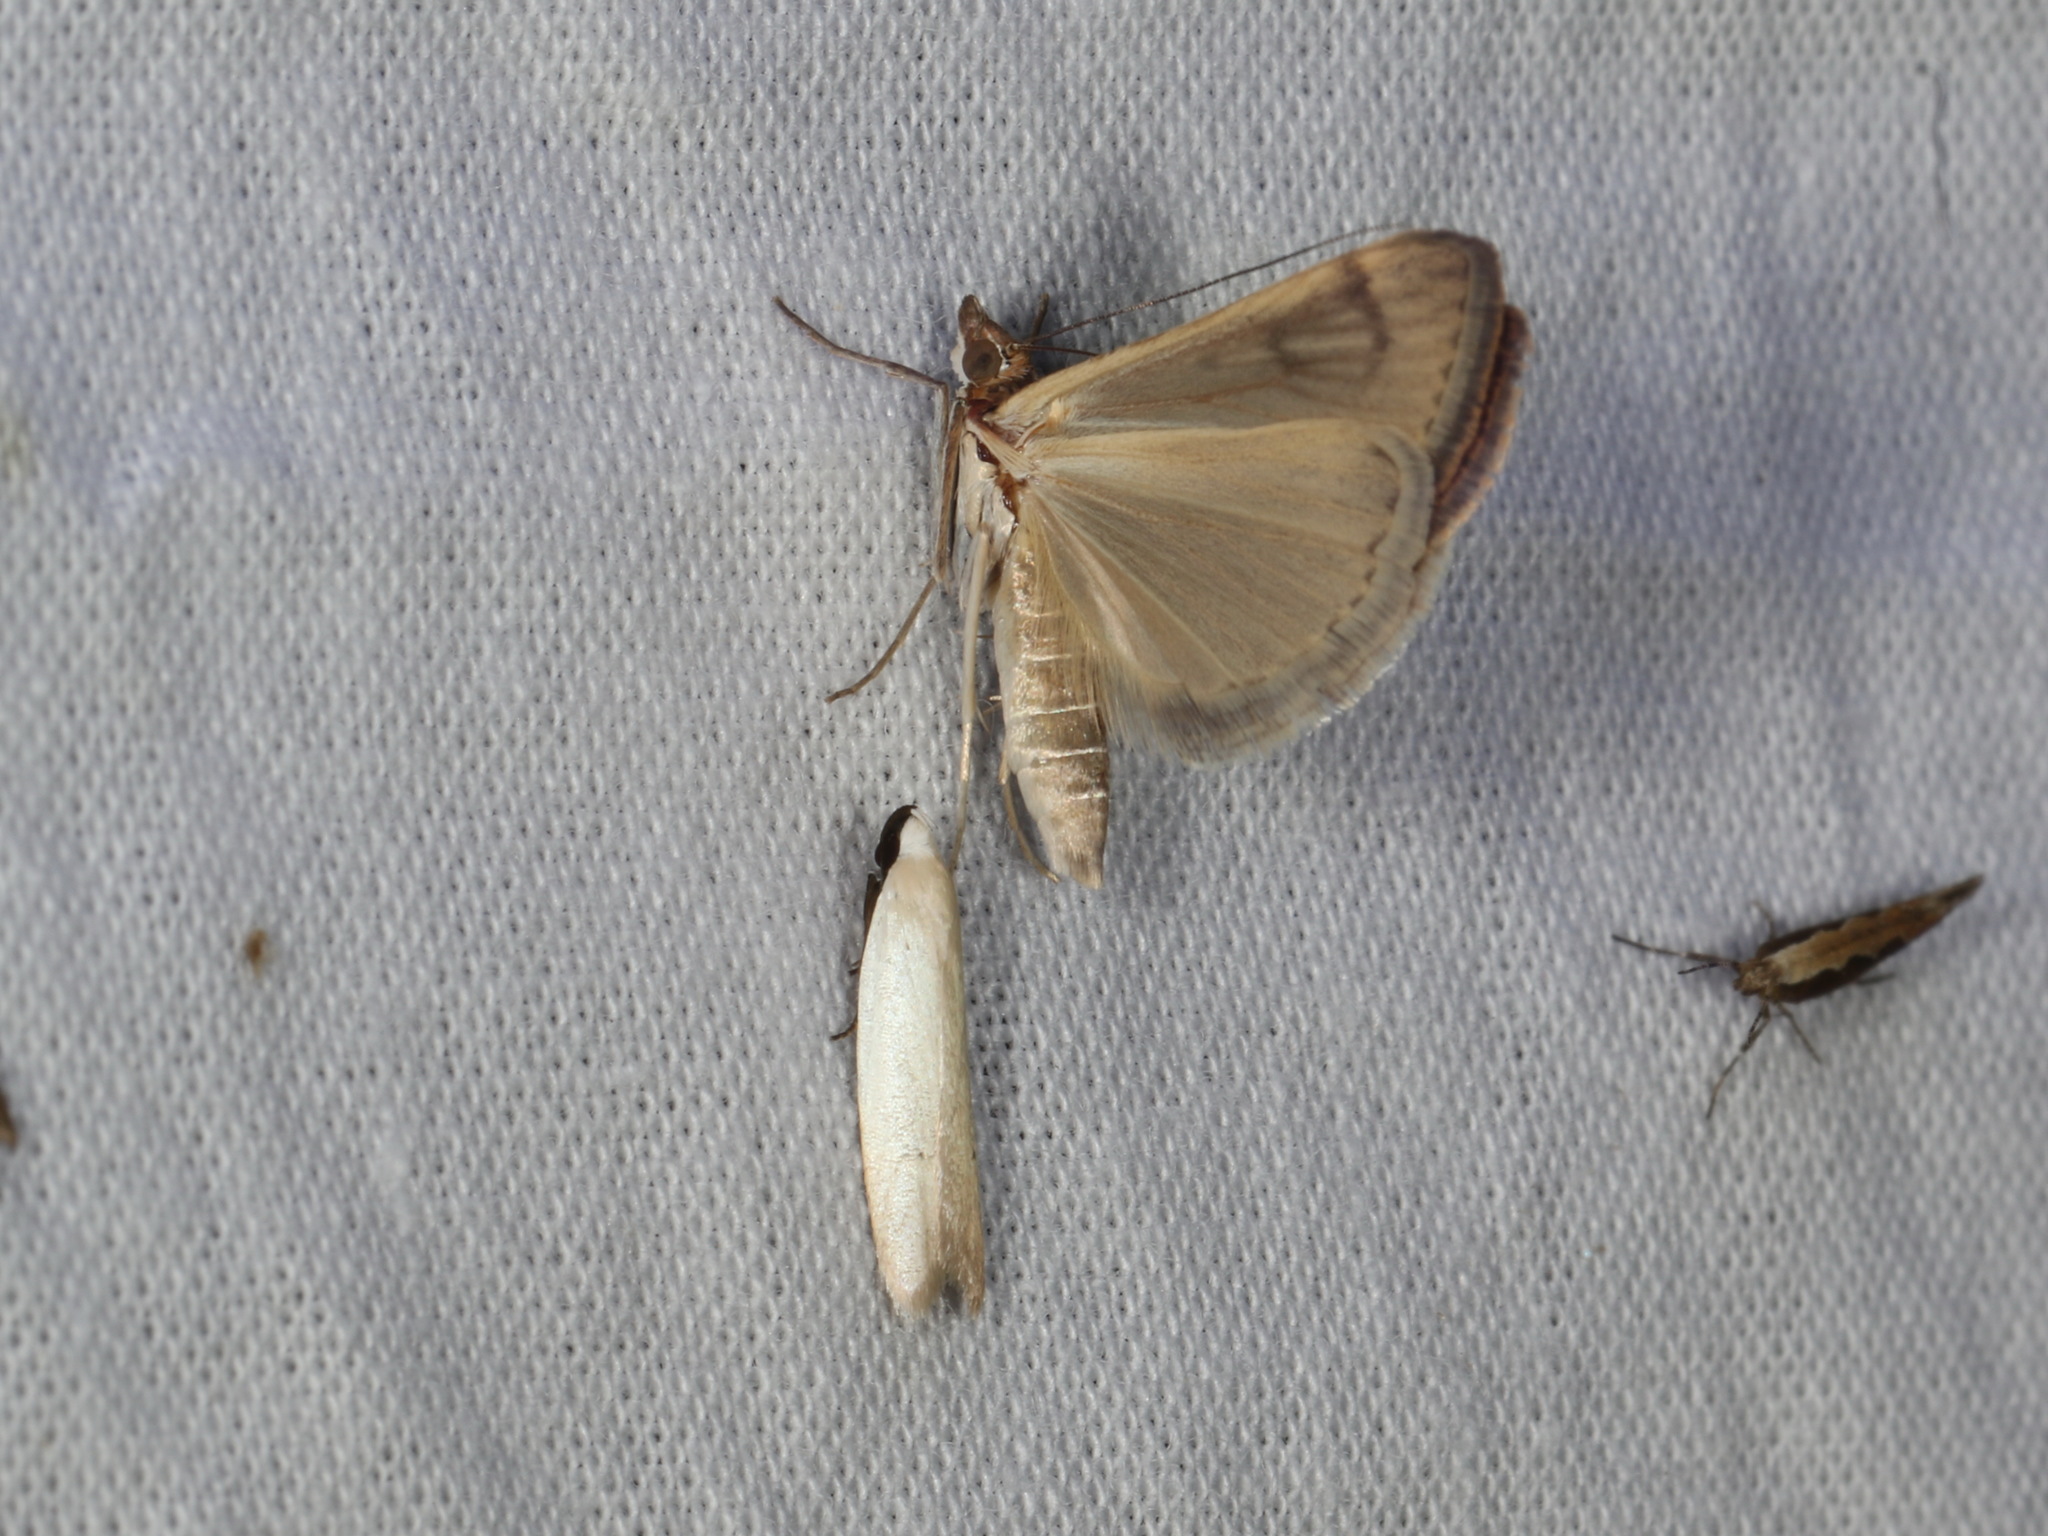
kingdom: Animalia
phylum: Arthropoda
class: Insecta
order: Lepidoptera
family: Crambidae
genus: Achyra
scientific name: Achyra affinitalis
